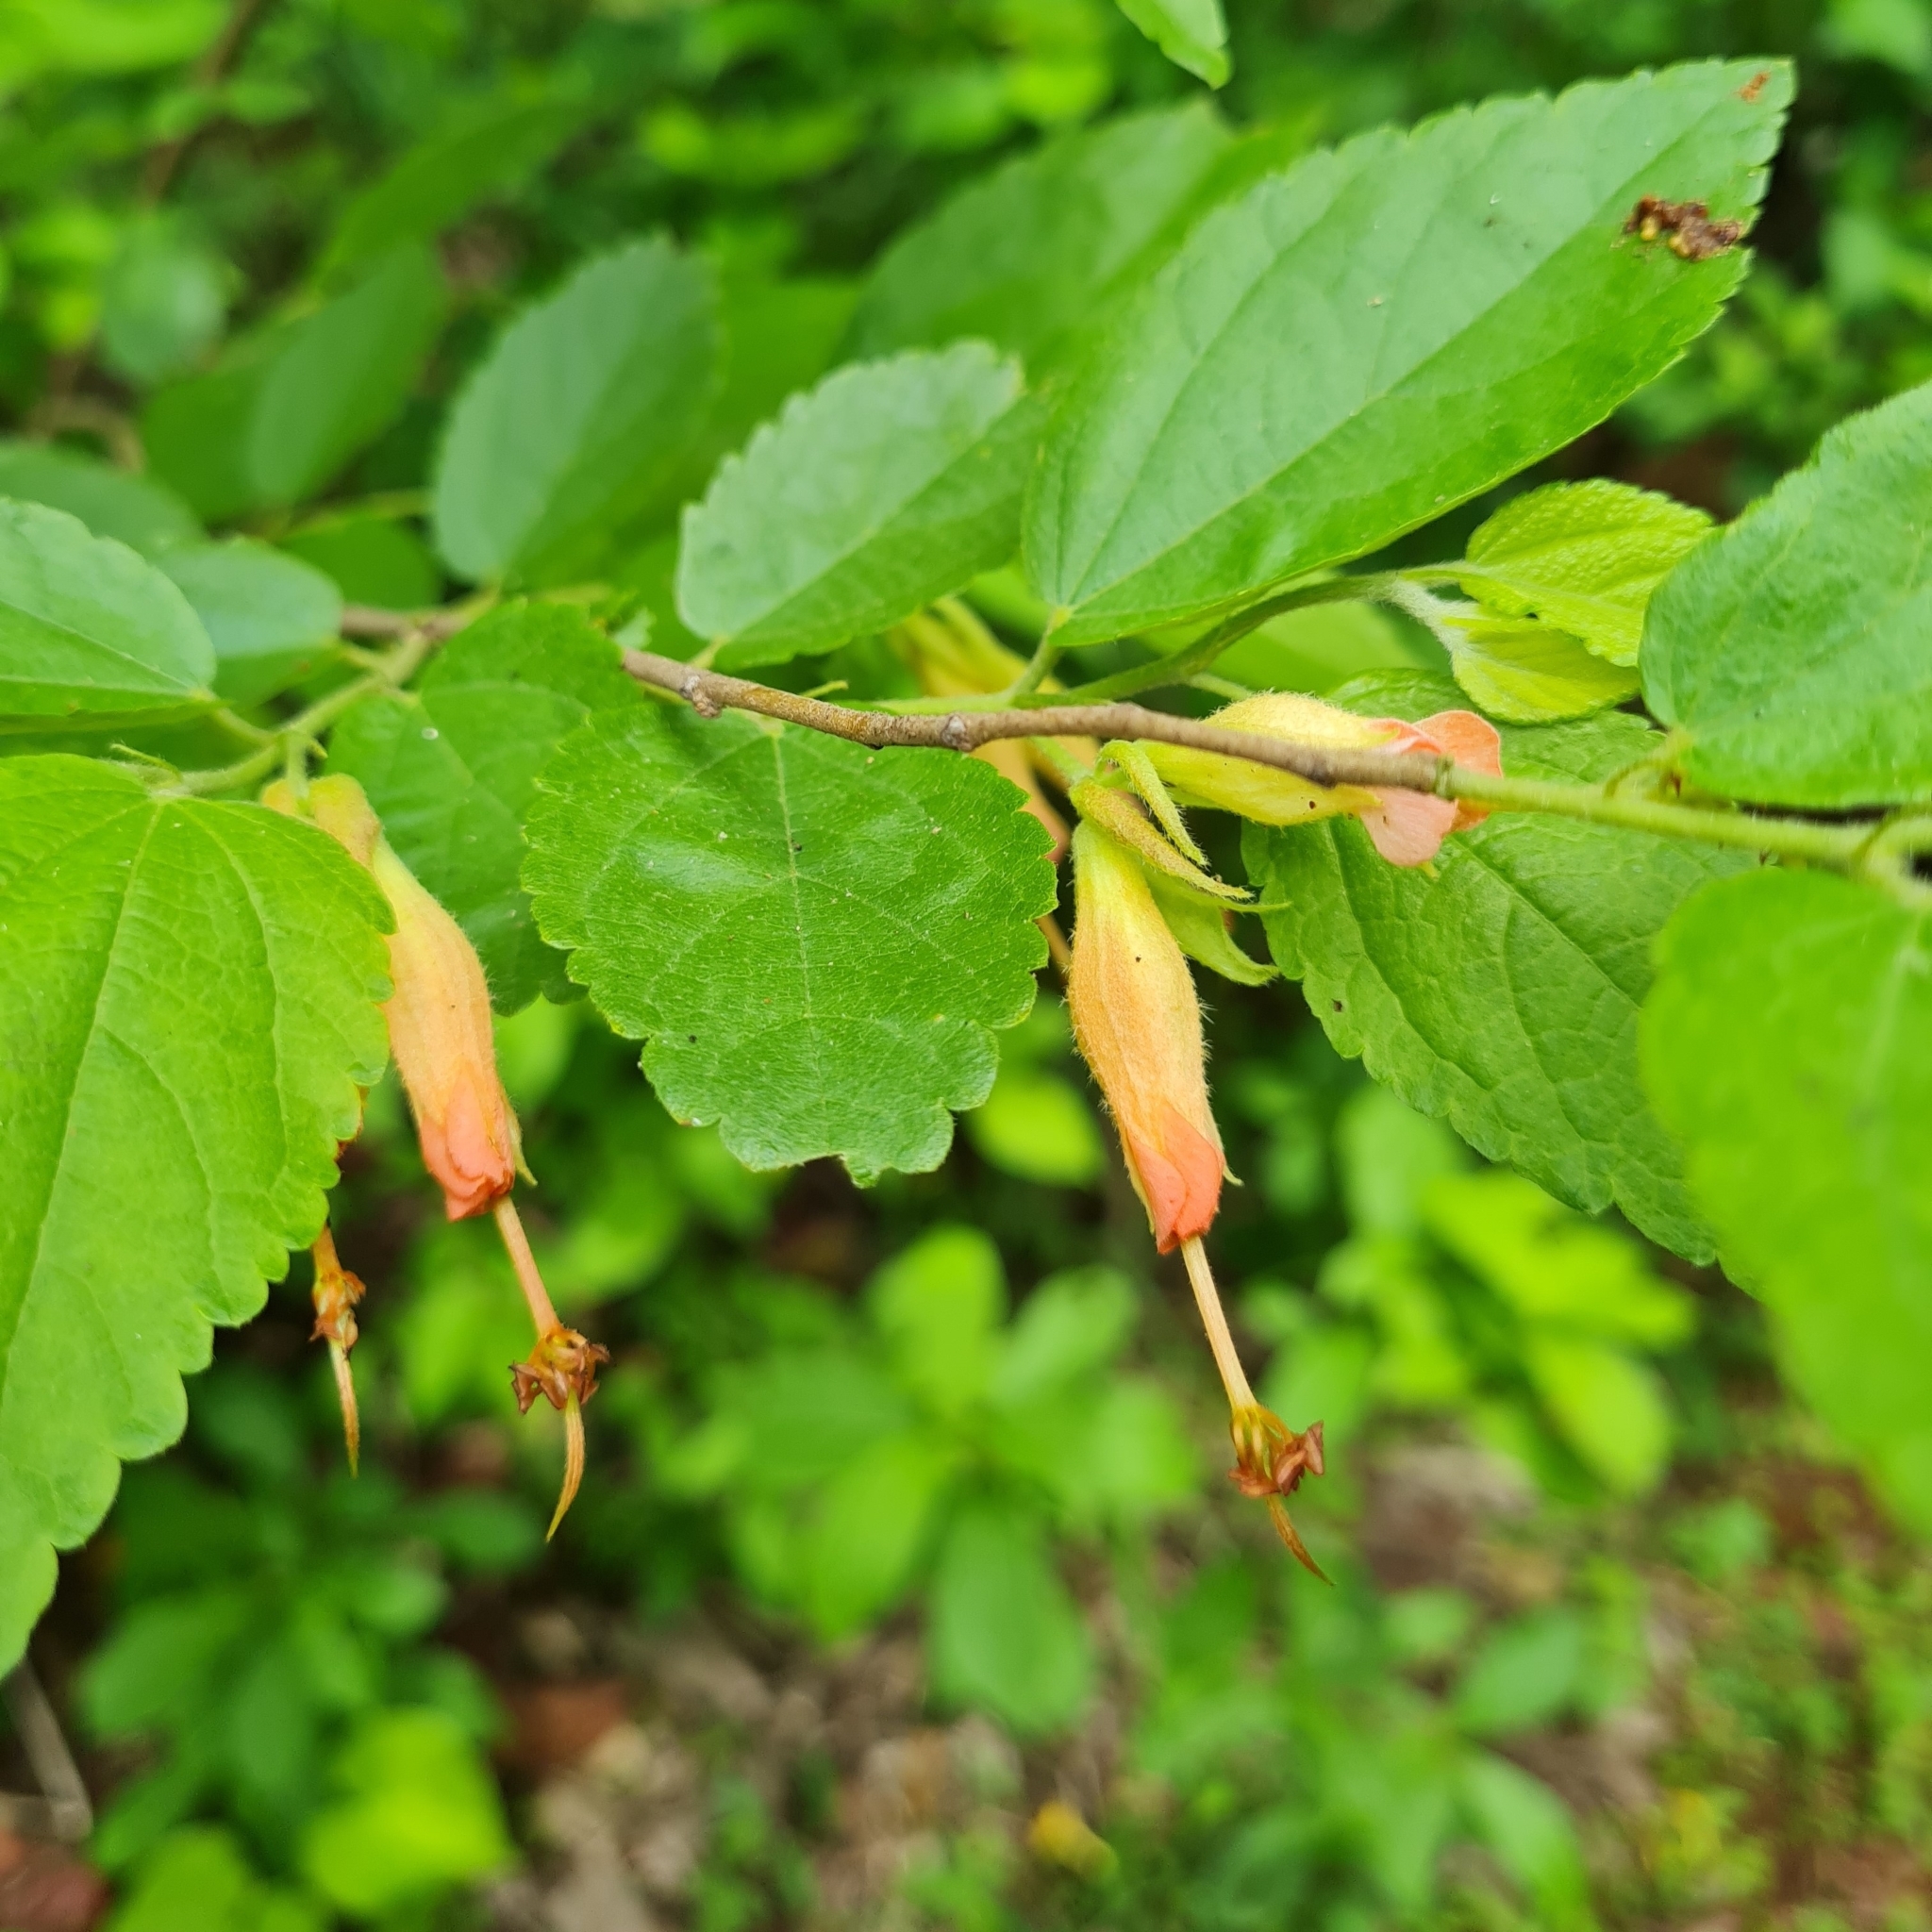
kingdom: Plantae
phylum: Tracheophyta
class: Magnoliopsida
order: Malvales
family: Malvaceae
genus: Helicteres
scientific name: Helicteres guazumifolia
